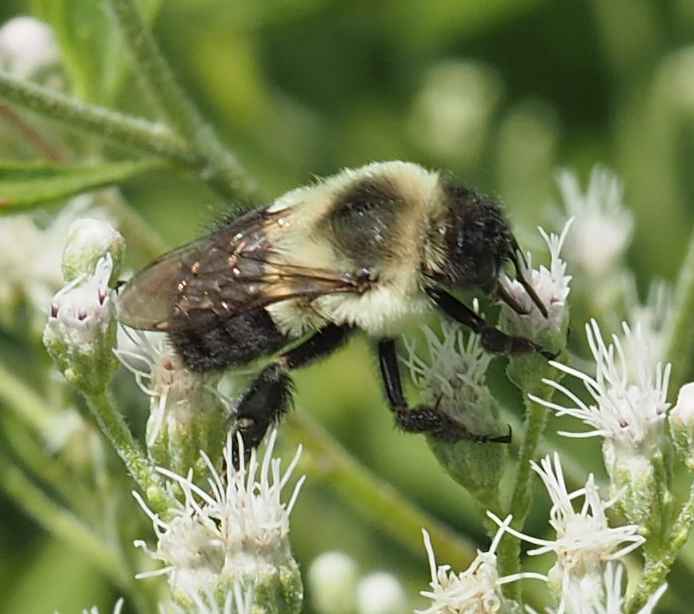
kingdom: Animalia
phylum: Arthropoda
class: Insecta
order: Hymenoptera
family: Apidae
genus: Bombus
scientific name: Bombus impatiens
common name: Common eastern bumble bee
